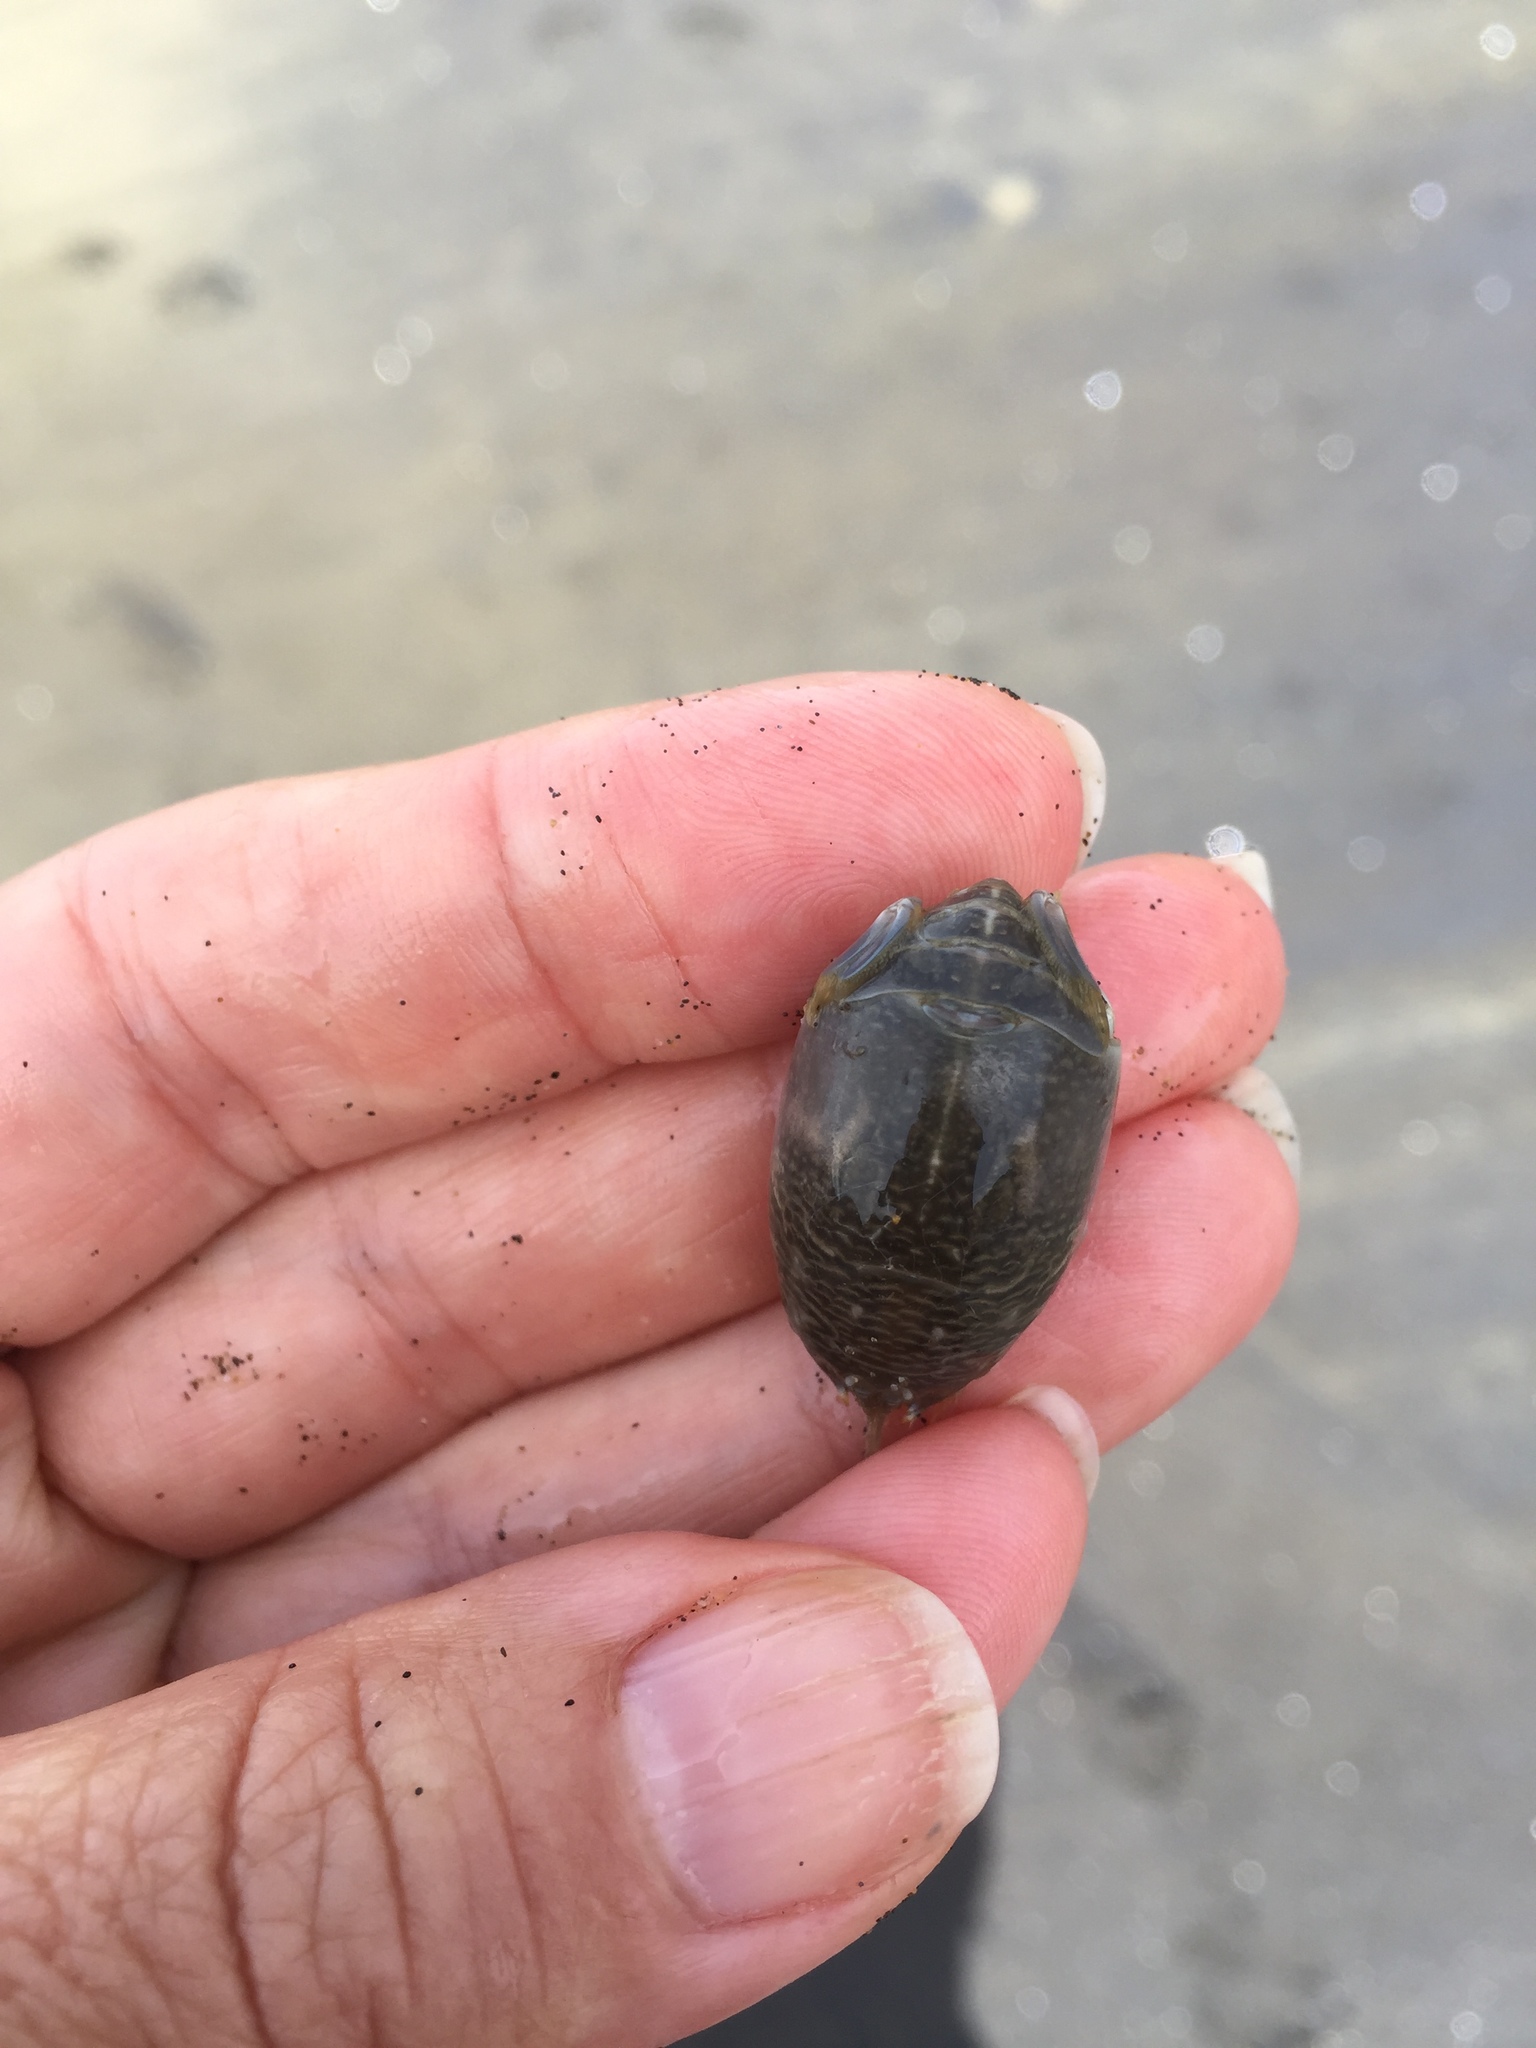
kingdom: Animalia
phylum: Arthropoda
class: Malacostraca
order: Decapoda
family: Hippidae
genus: Emerita
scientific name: Emerita analoga
